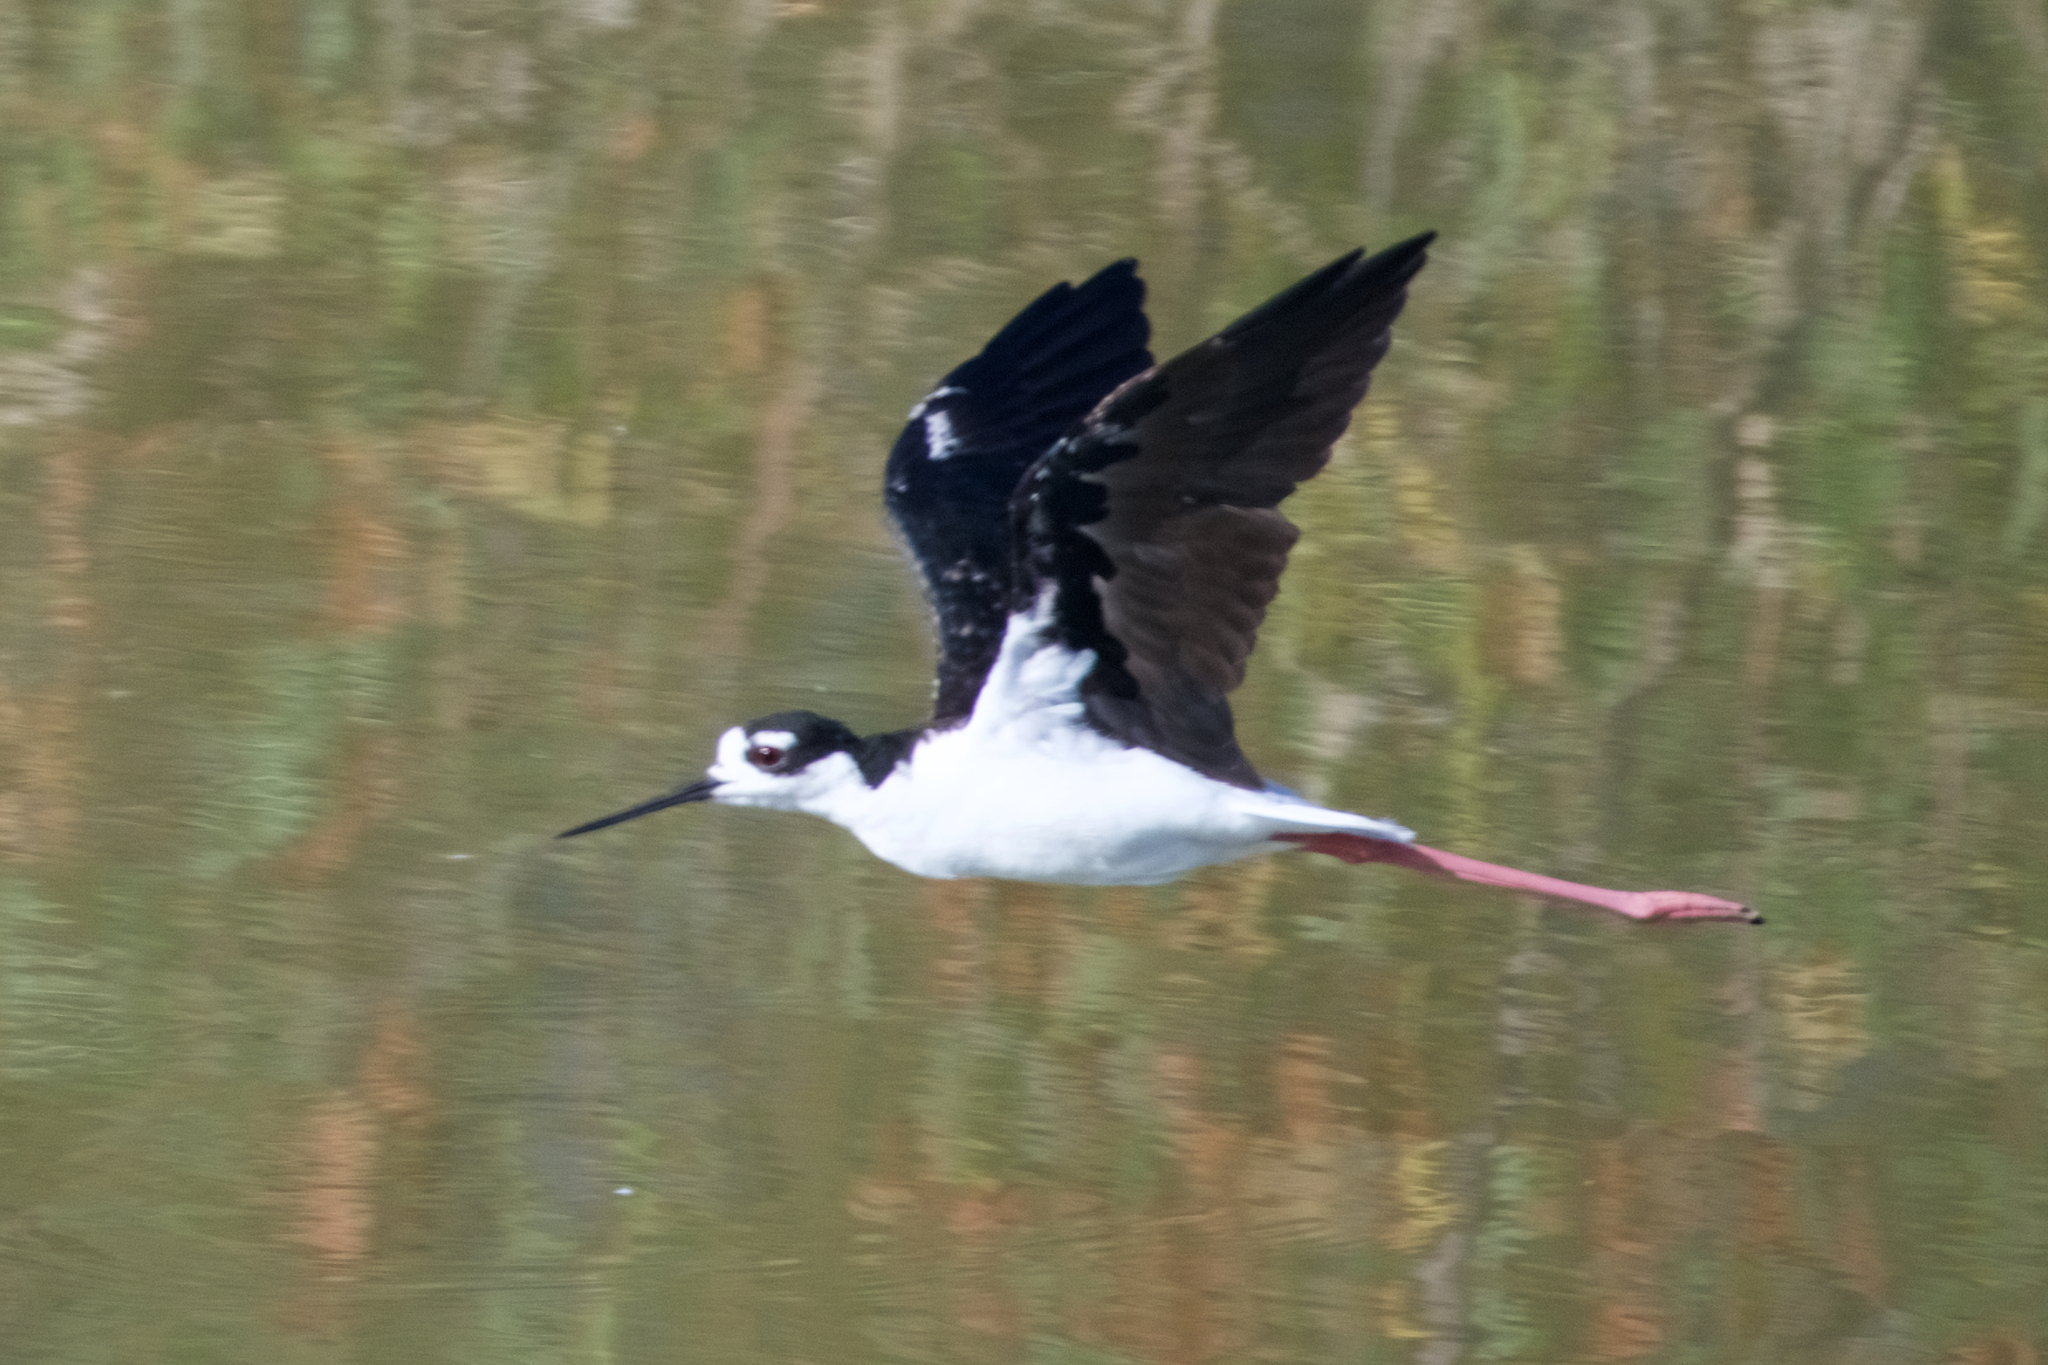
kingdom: Animalia
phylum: Chordata
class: Aves
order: Charadriiformes
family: Recurvirostridae
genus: Himantopus
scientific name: Himantopus mexicanus
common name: Black-necked stilt
